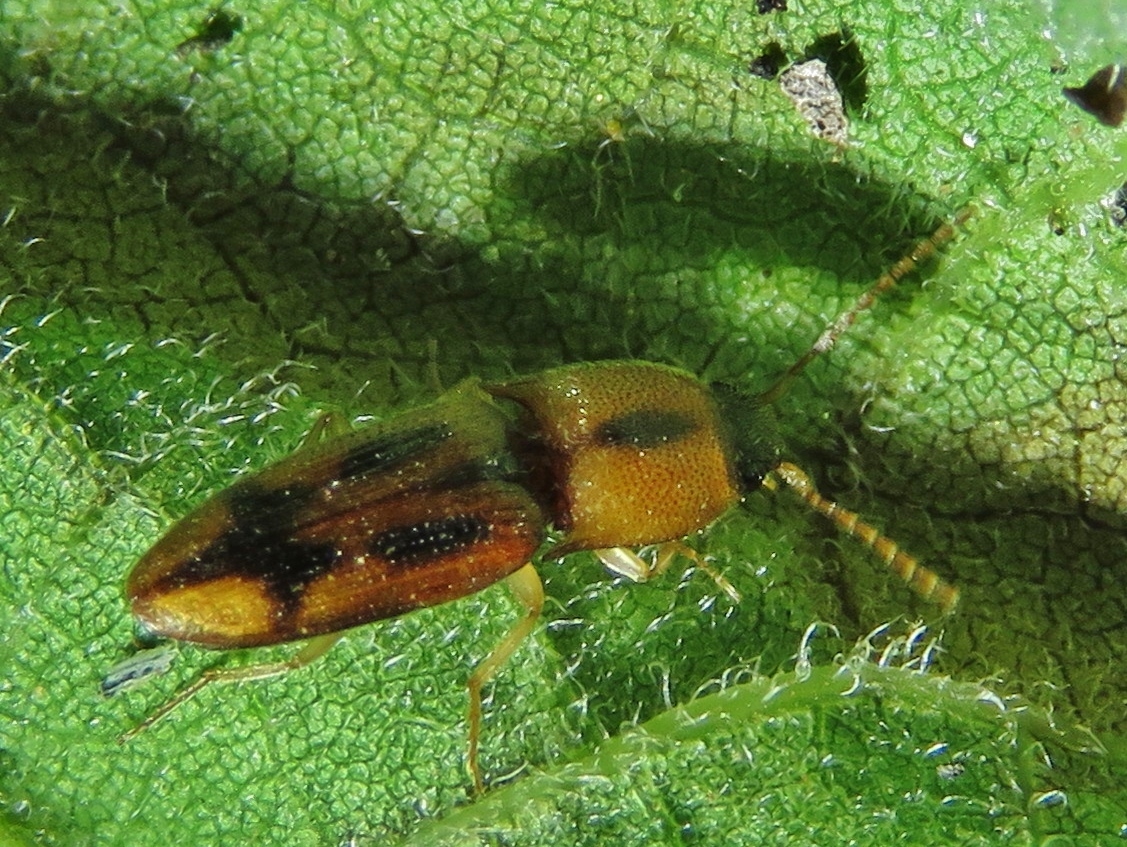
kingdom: Animalia
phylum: Arthropoda
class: Insecta
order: Coleoptera
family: Elateridae
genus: Aeolus
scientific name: Aeolus mellillus
